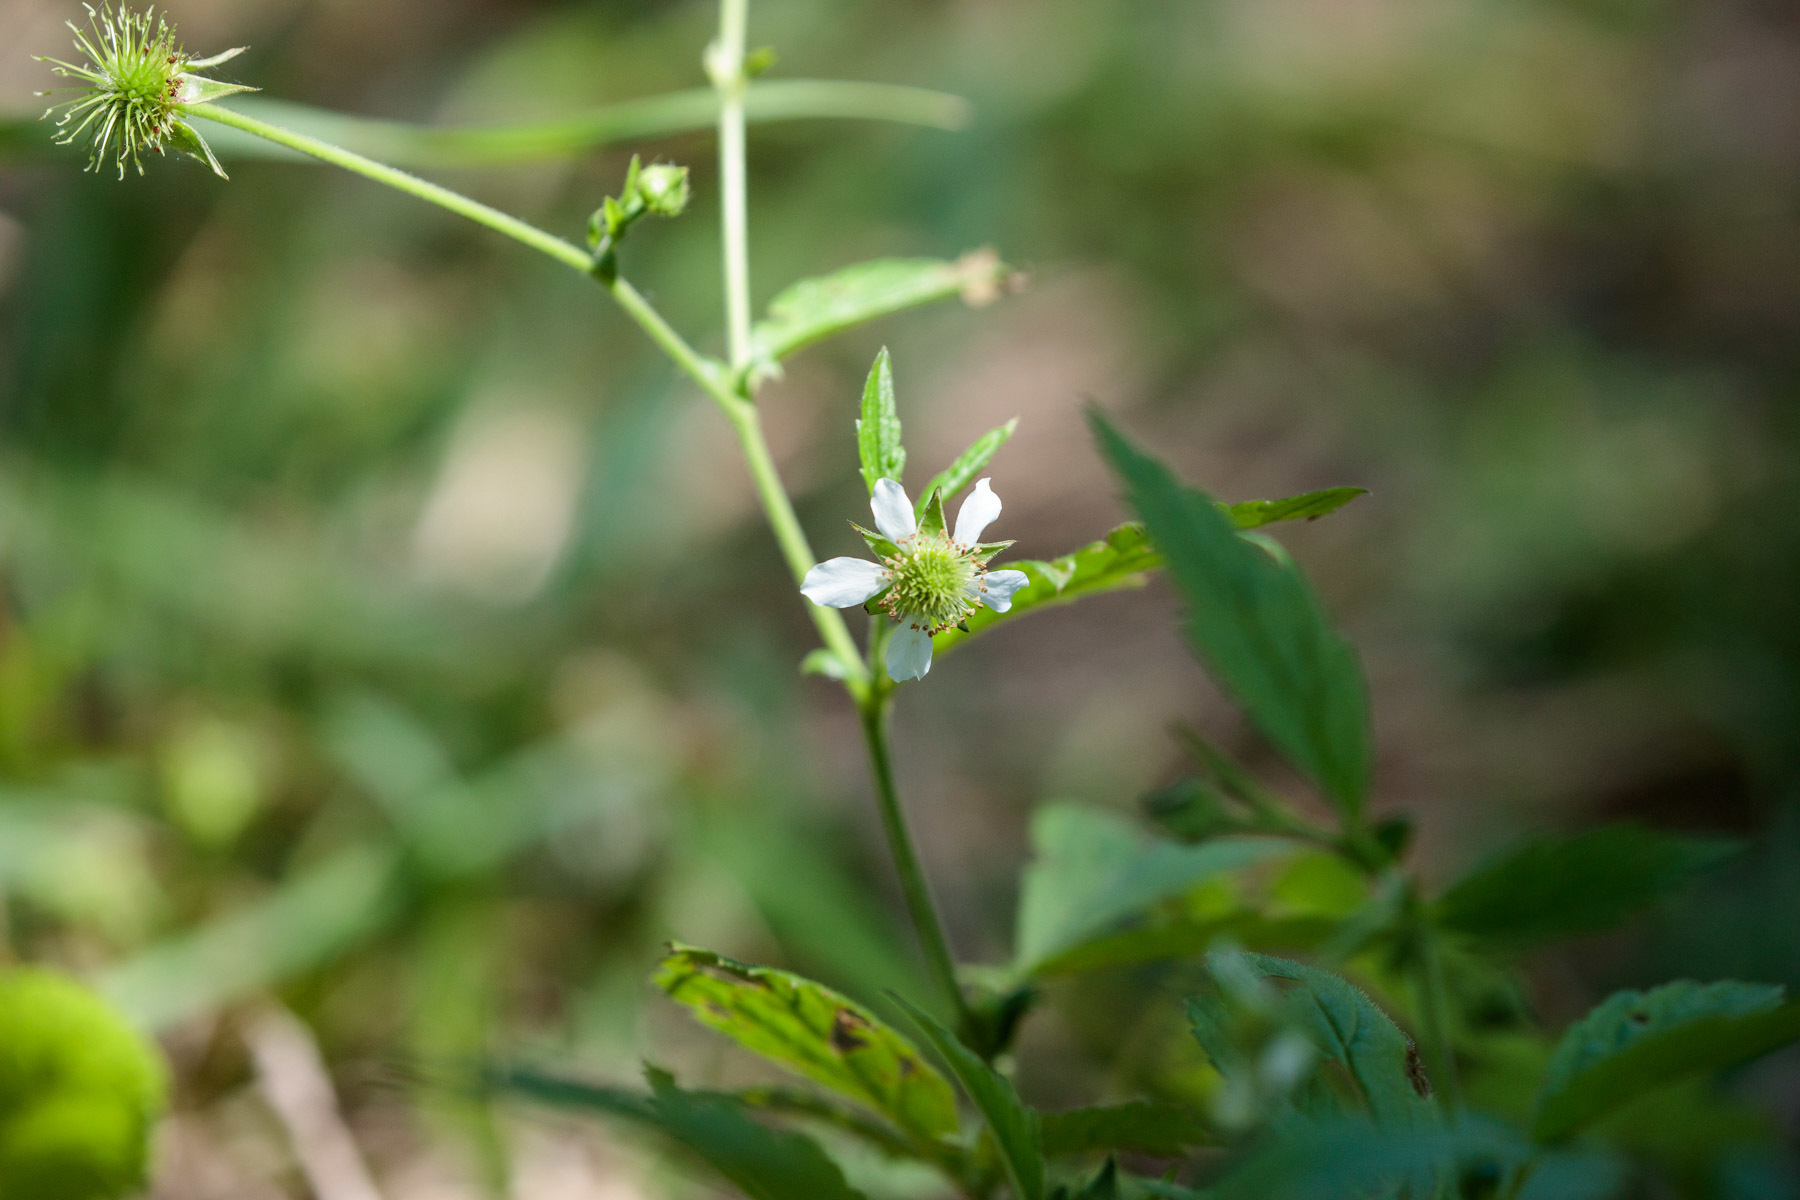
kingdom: Plantae
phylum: Tracheophyta
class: Magnoliopsida
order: Rosales
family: Rosaceae
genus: Geum
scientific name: Geum canadense
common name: White avens
